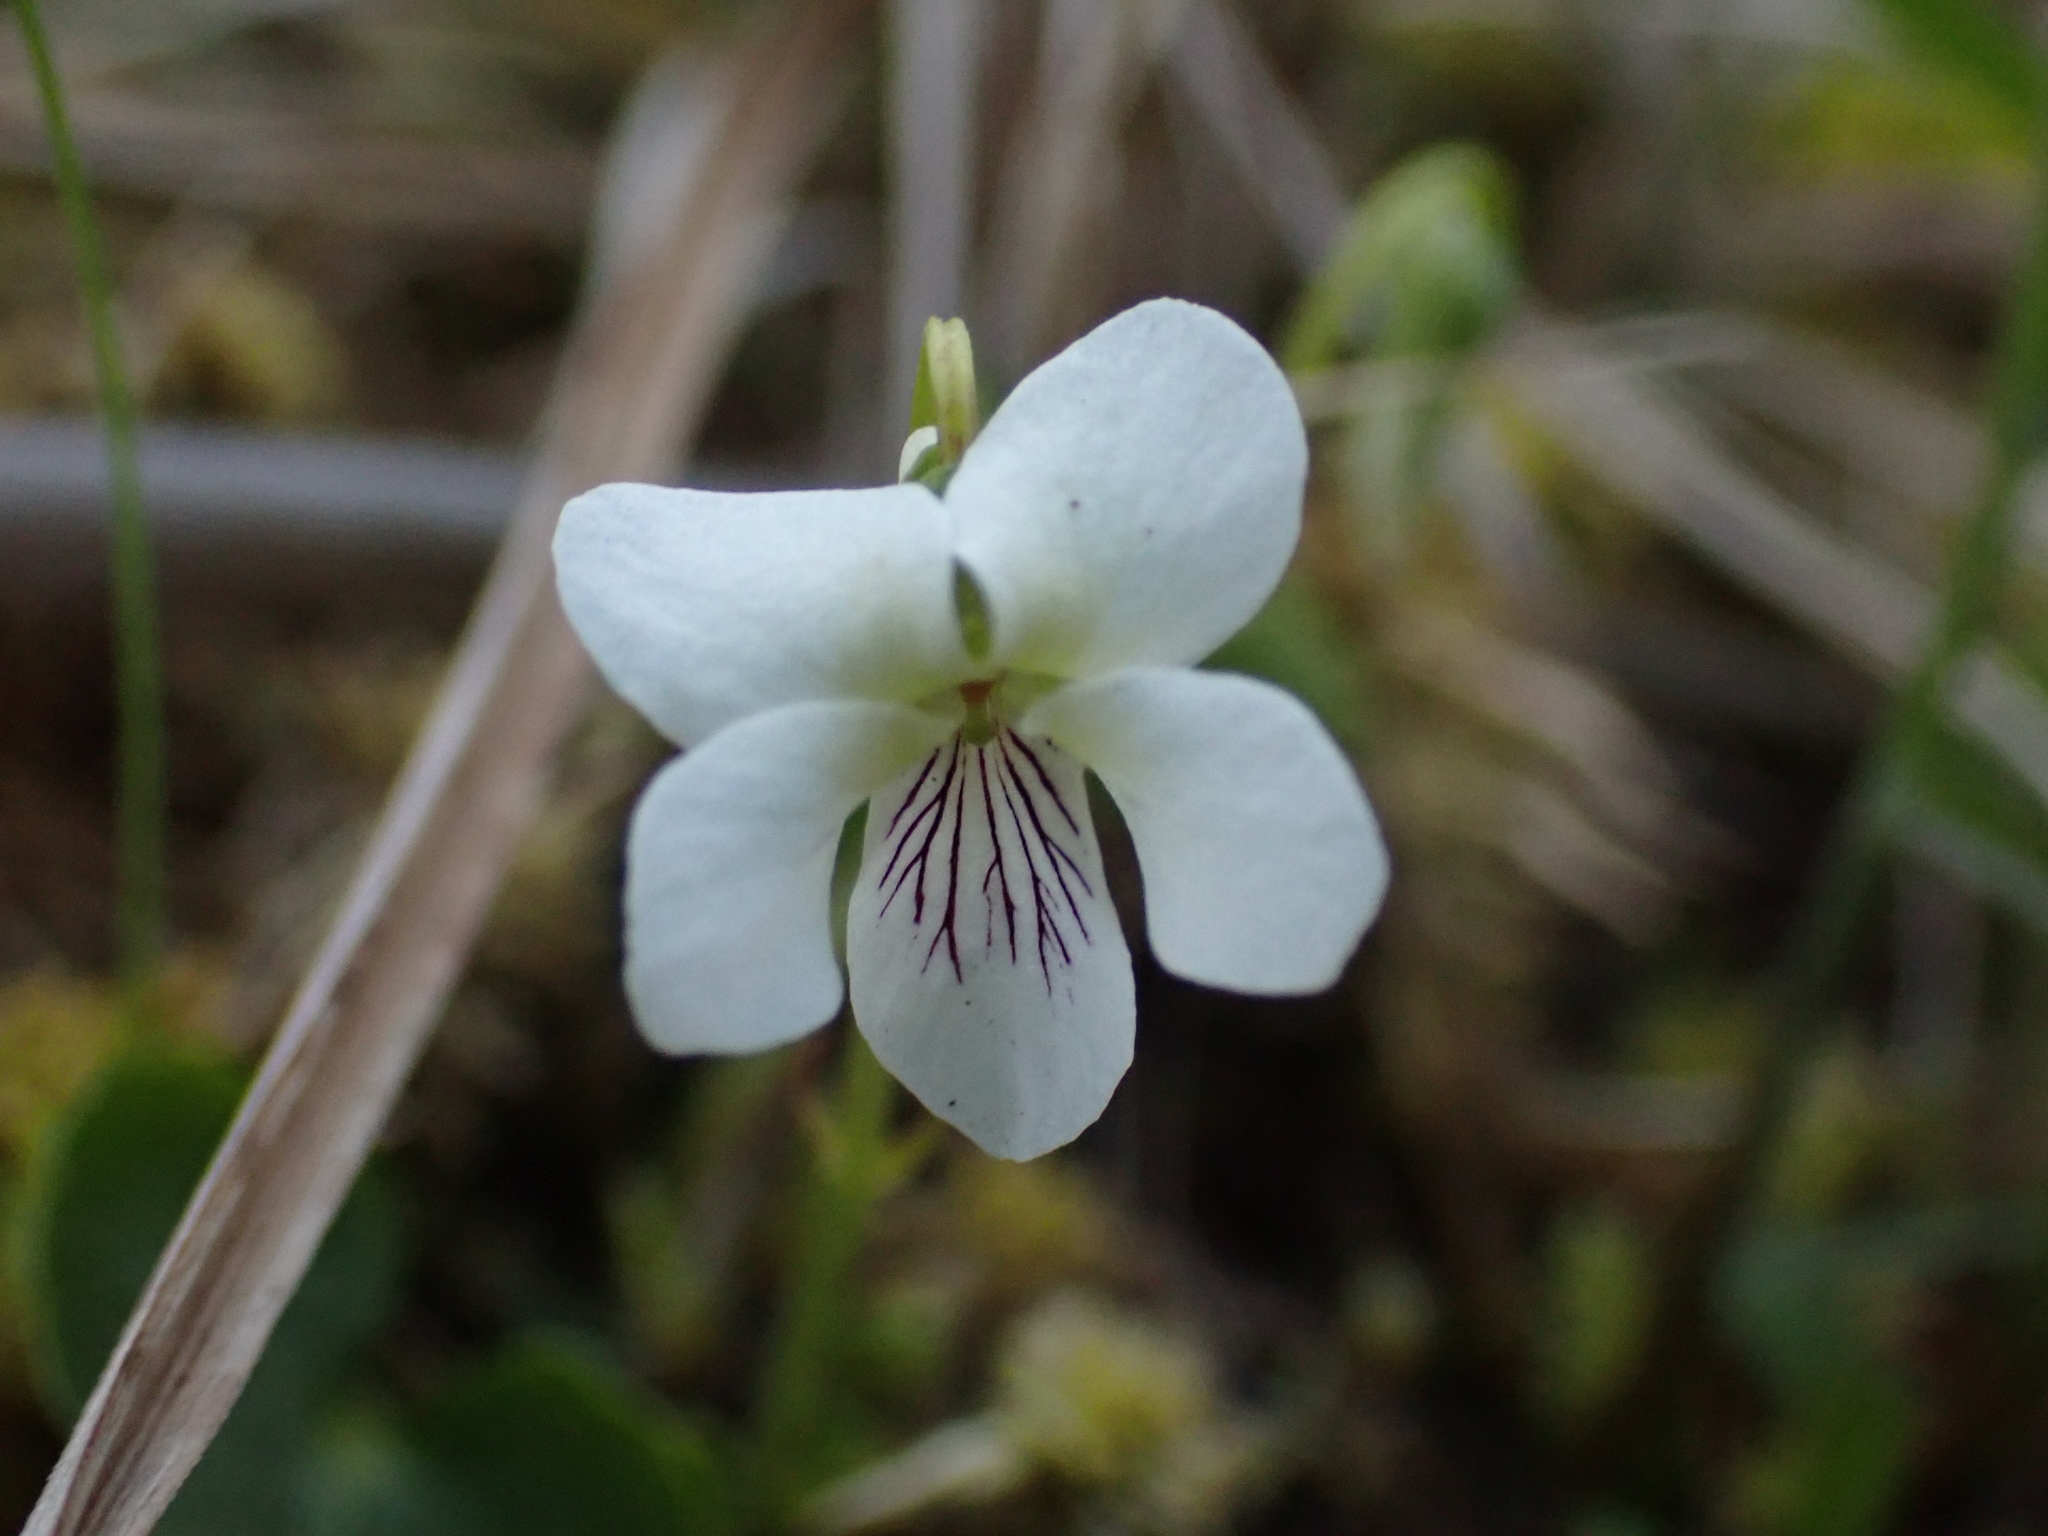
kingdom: Plantae
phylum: Tracheophyta
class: Magnoliopsida
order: Malpighiales
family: Violaceae
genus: Viola
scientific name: Viola minuscula
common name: Northern white violet
